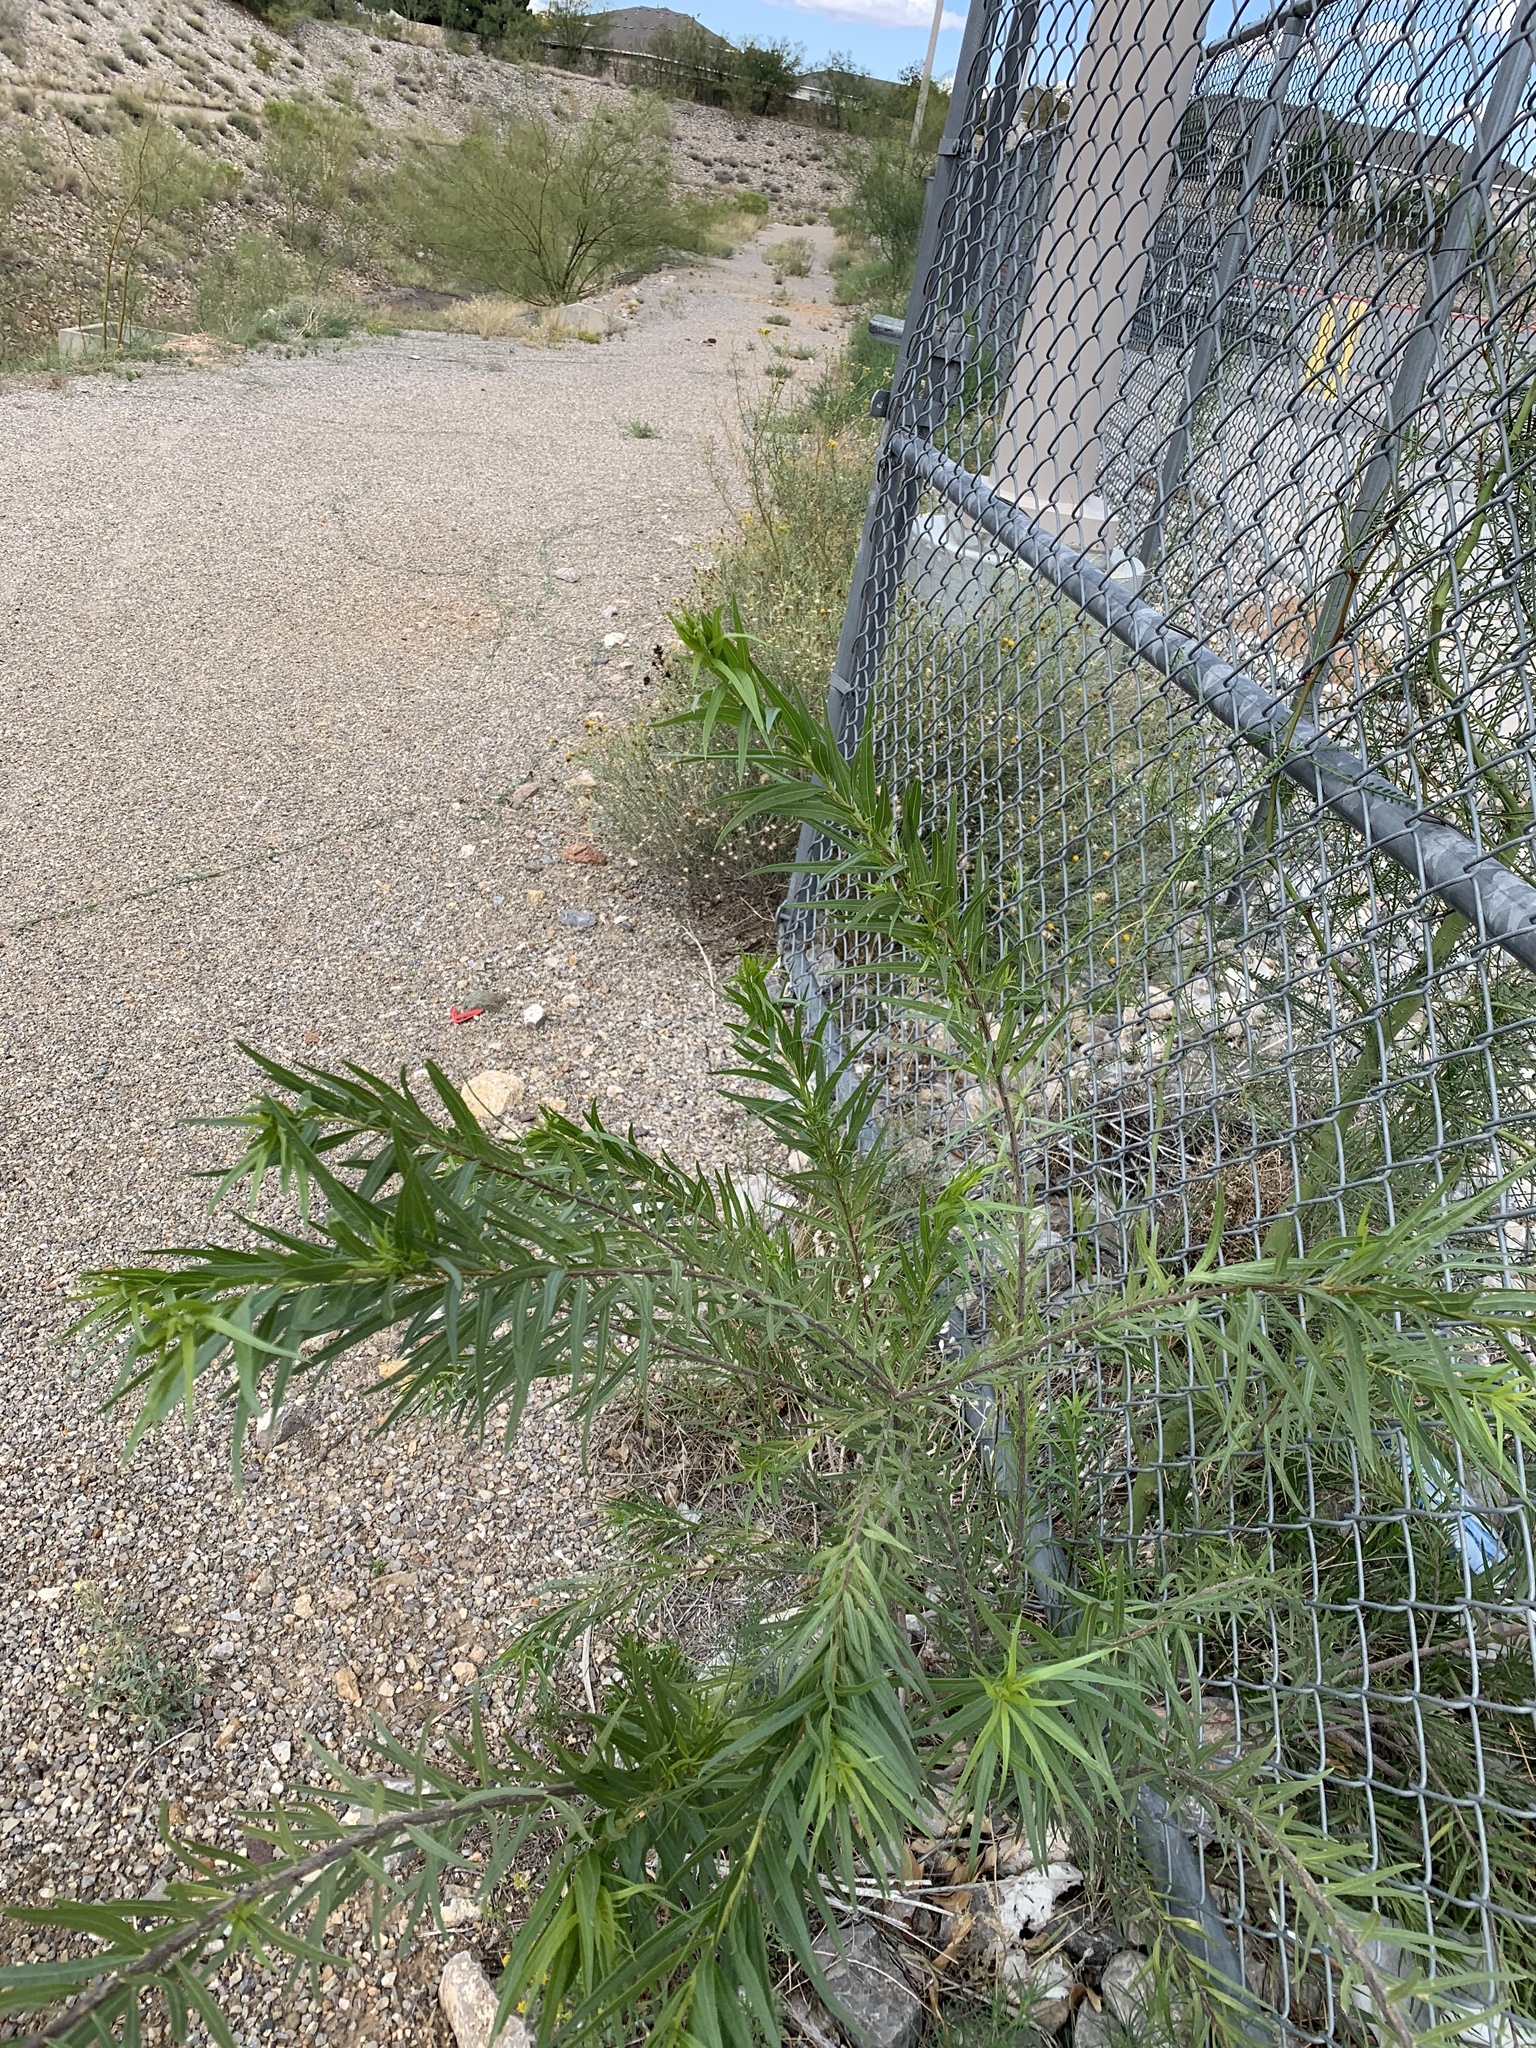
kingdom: Plantae
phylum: Tracheophyta
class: Magnoliopsida
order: Lamiales
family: Bignoniaceae
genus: Chilopsis
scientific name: Chilopsis linearis
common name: Desert-willow
